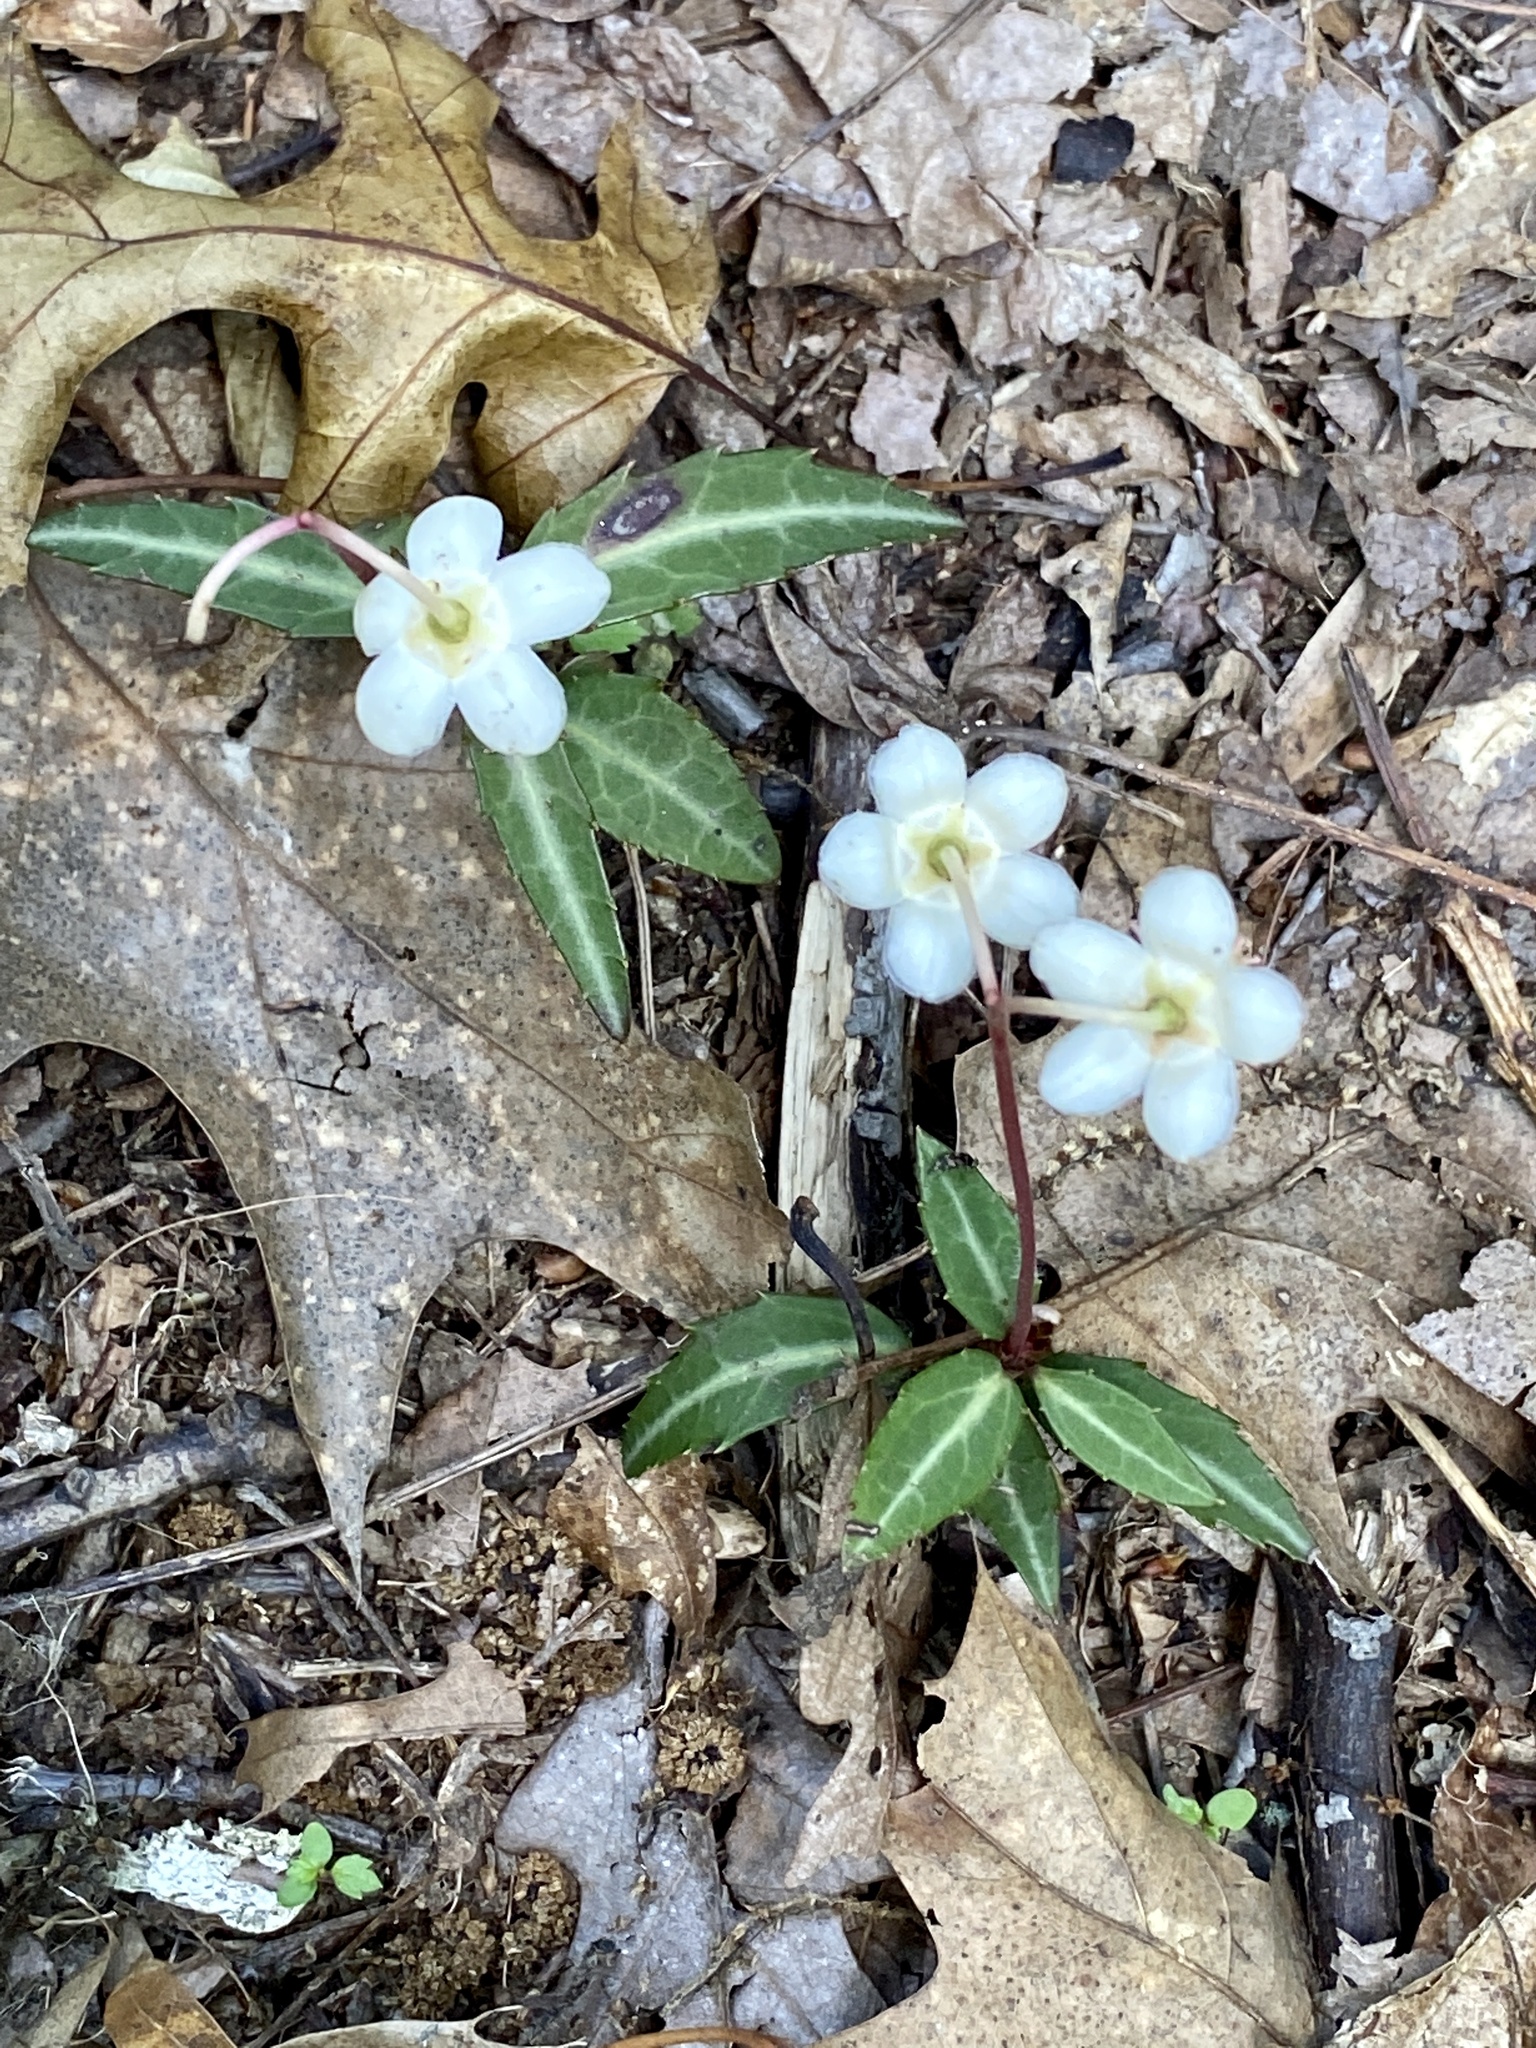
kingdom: Plantae
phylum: Tracheophyta
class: Magnoliopsida
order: Ericales
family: Ericaceae
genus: Chimaphila
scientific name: Chimaphila maculata
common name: Spotted pipsissewa
